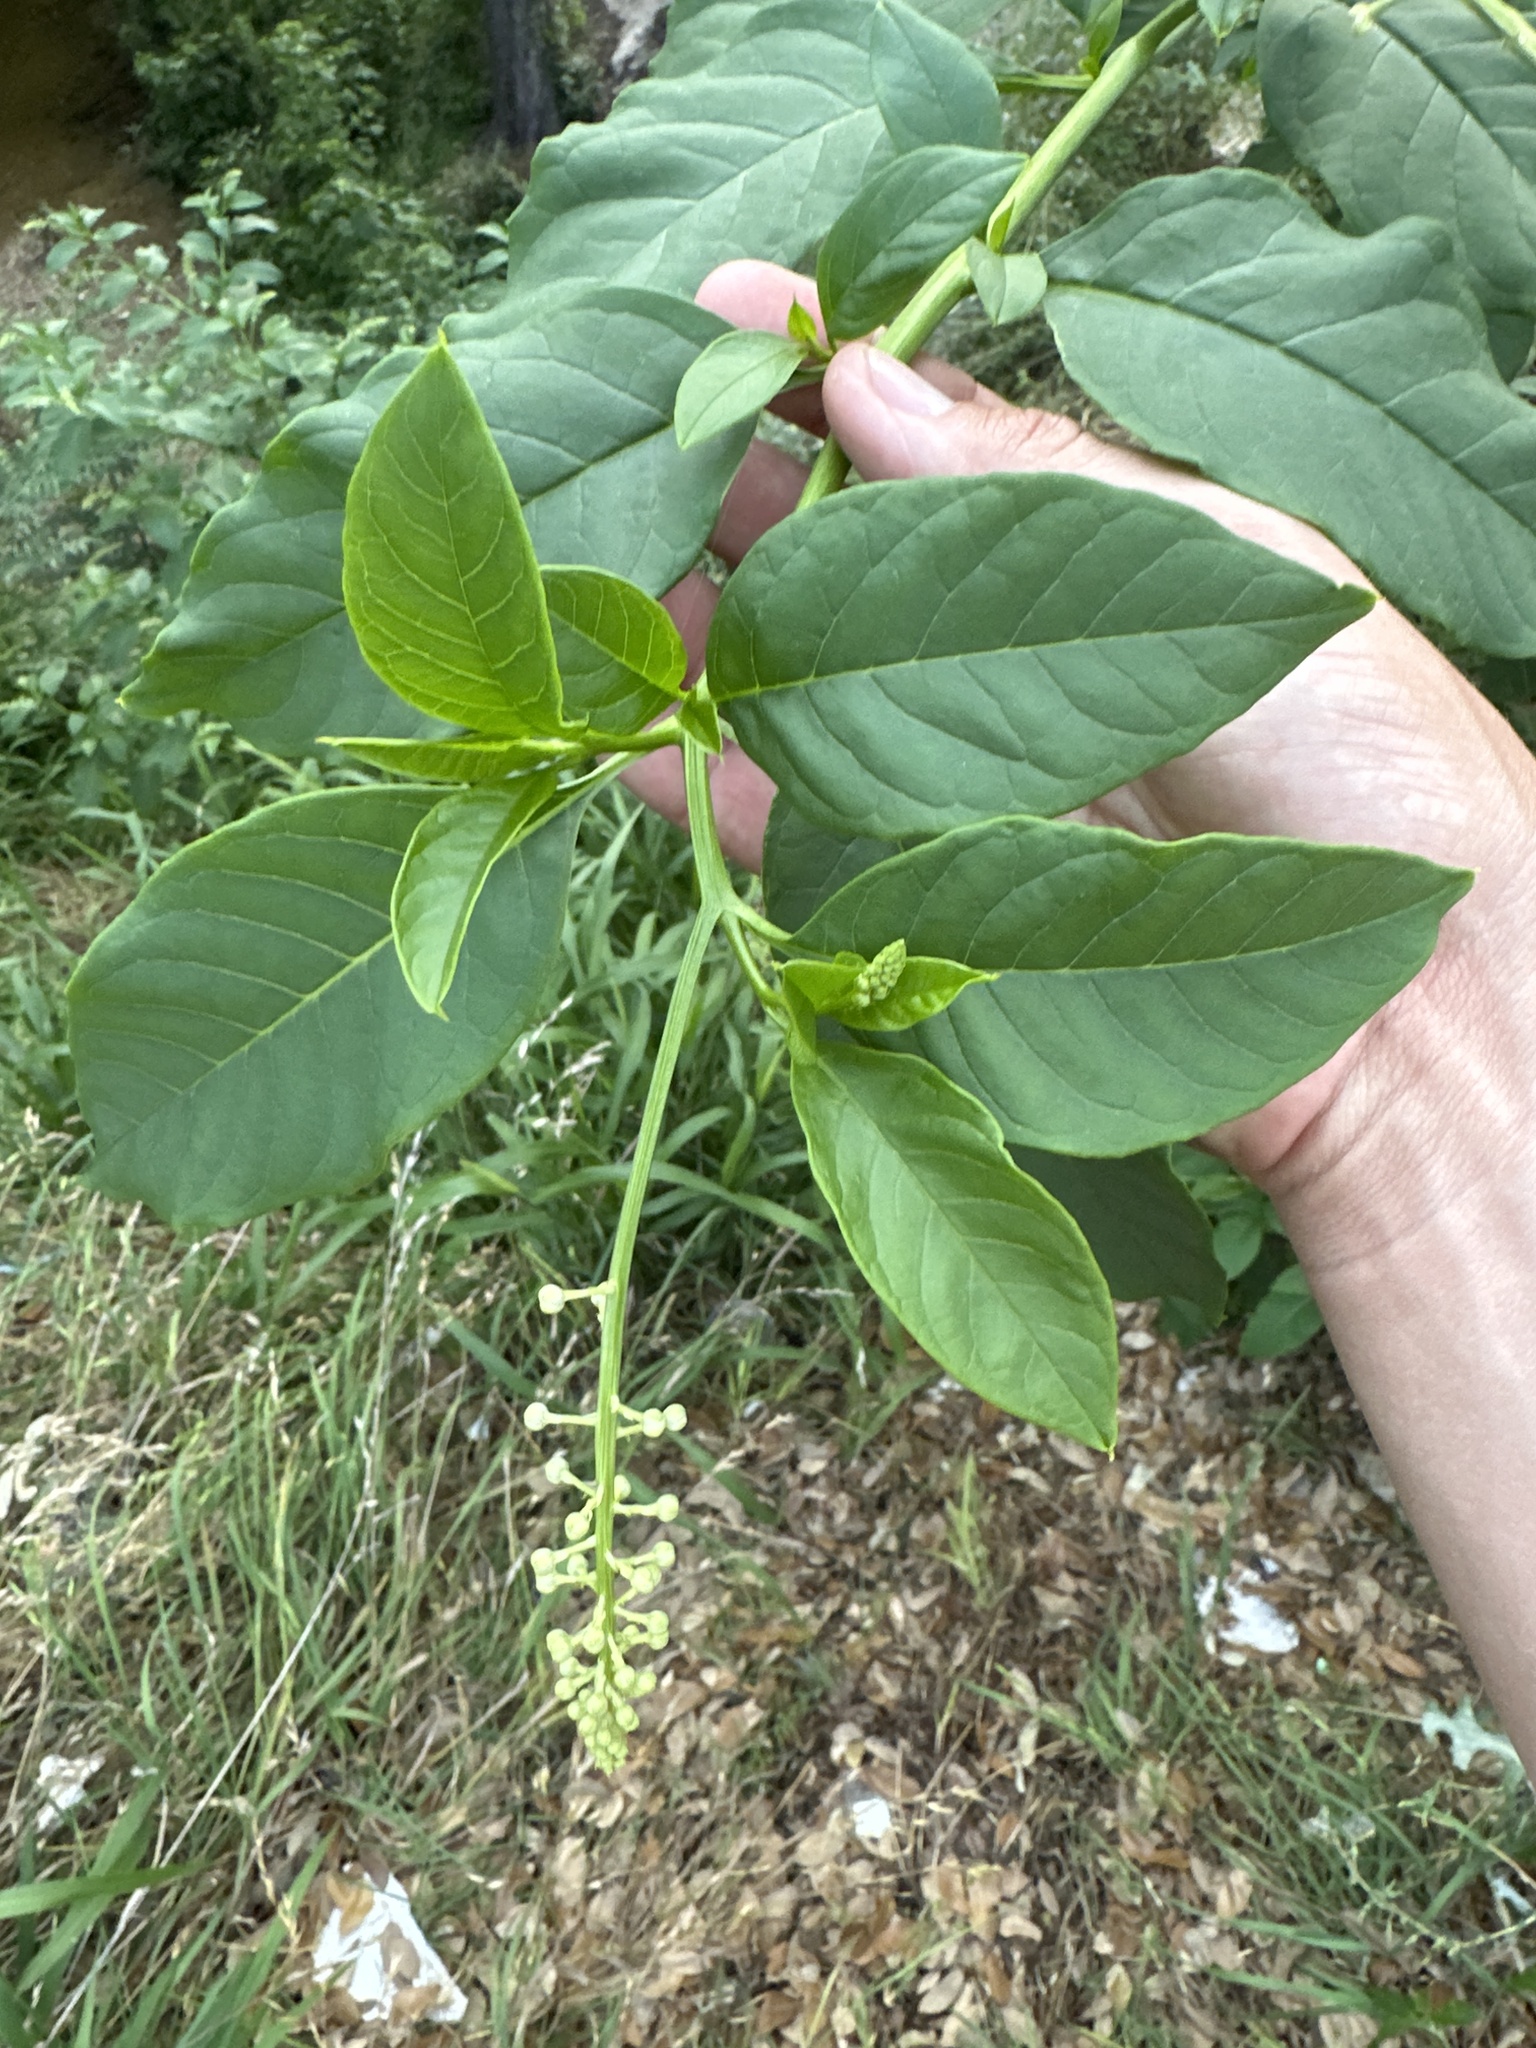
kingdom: Plantae
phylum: Tracheophyta
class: Magnoliopsida
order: Caryophyllales
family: Phytolaccaceae
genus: Phytolacca
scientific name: Phytolacca americana
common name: American pokeweed
